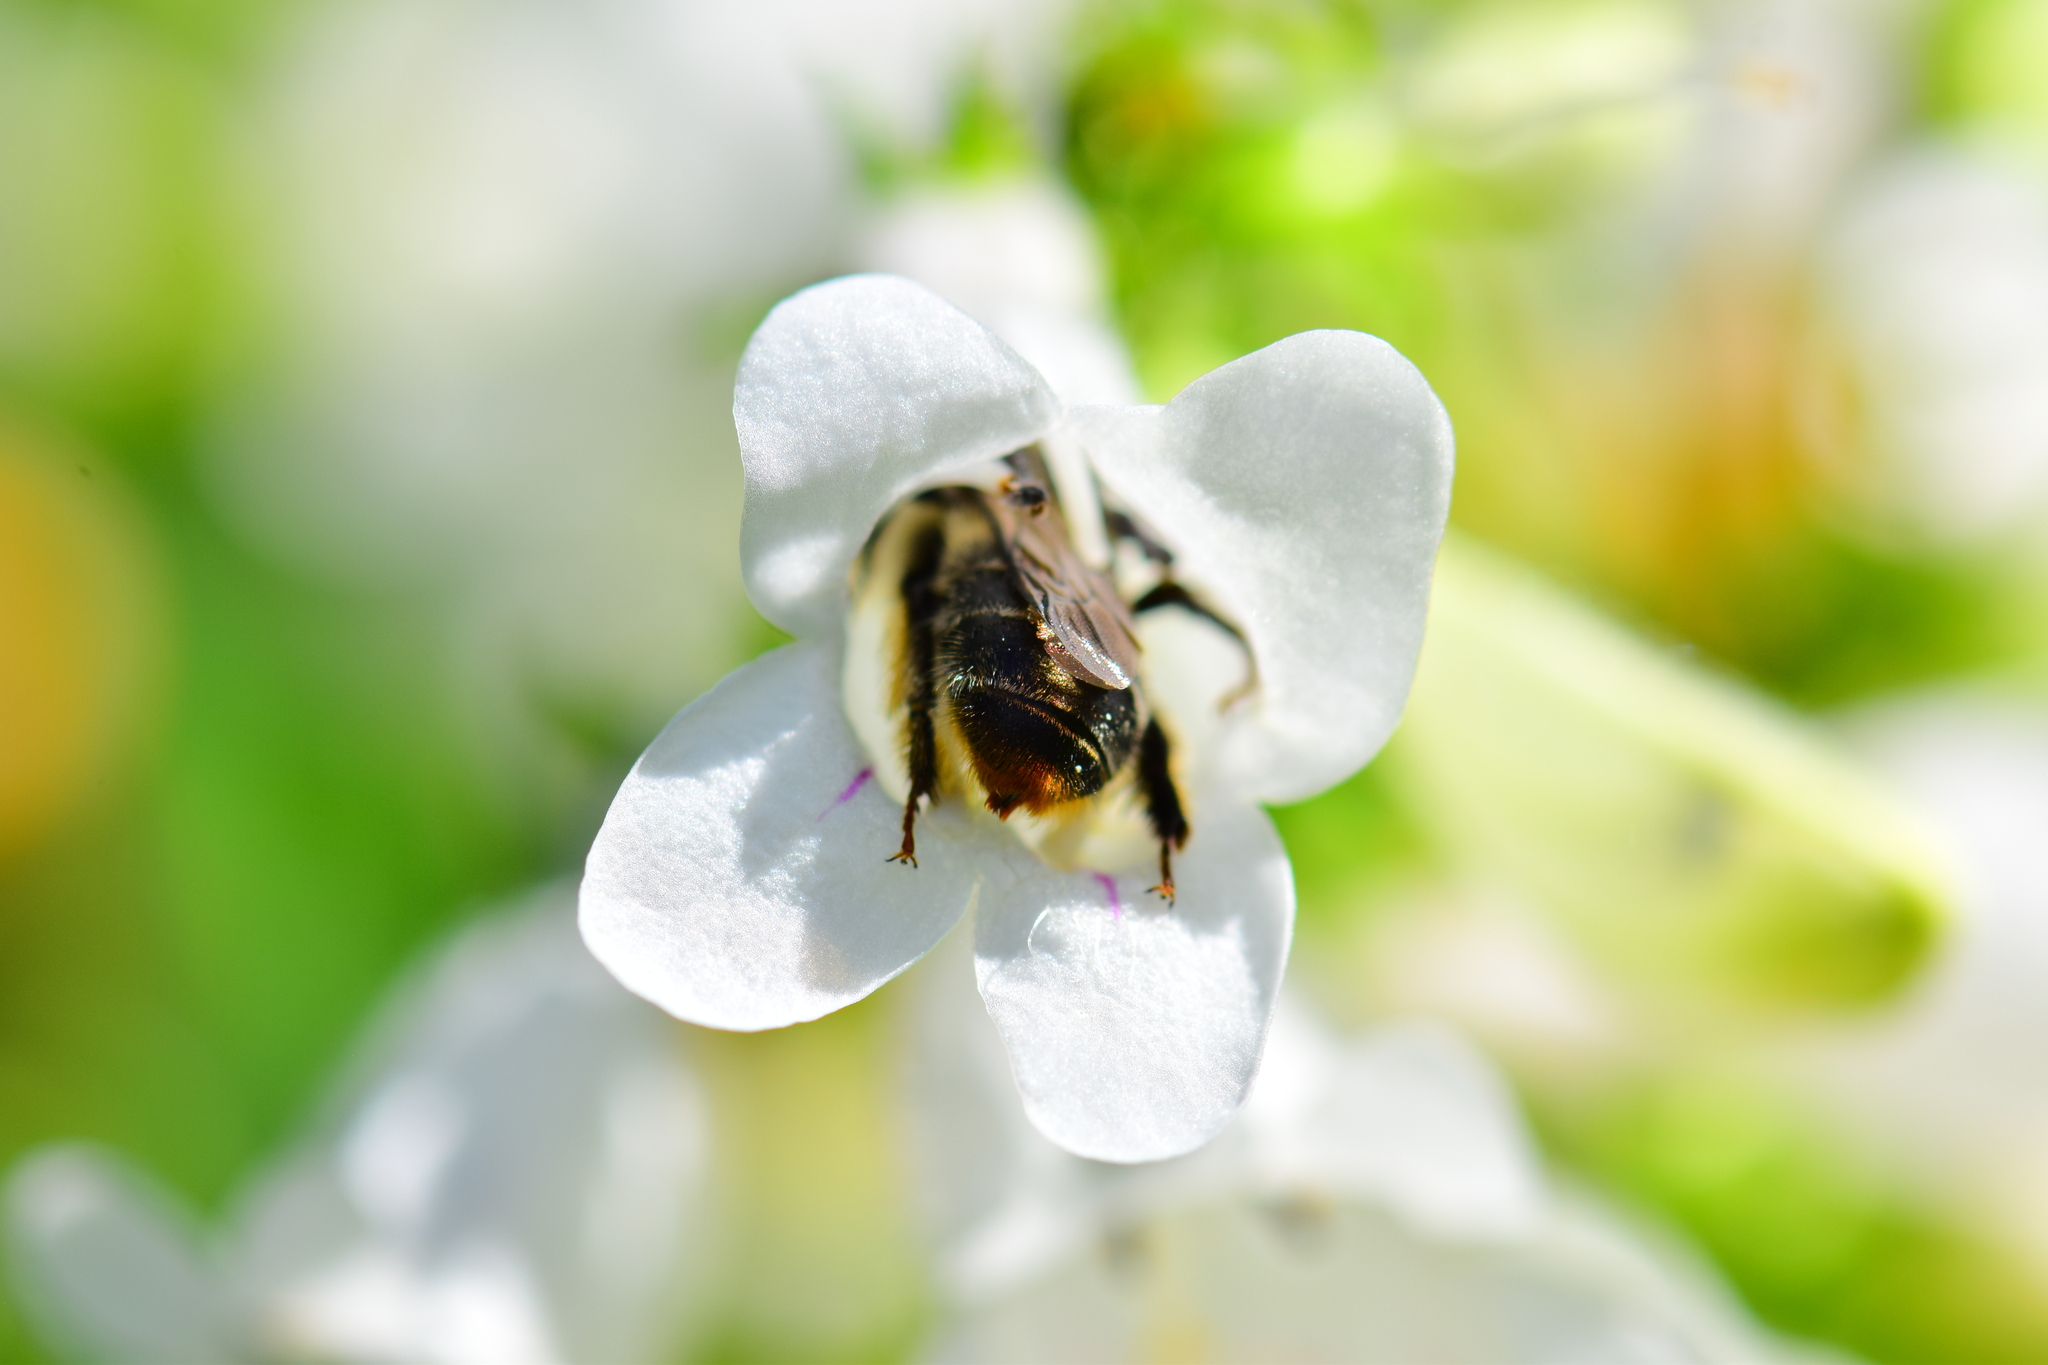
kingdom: Animalia
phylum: Arthropoda
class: Insecta
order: Hymenoptera
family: Apidae
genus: Anthophora
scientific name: Anthophora terminalis
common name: Orange-tipped wood-digger bee
